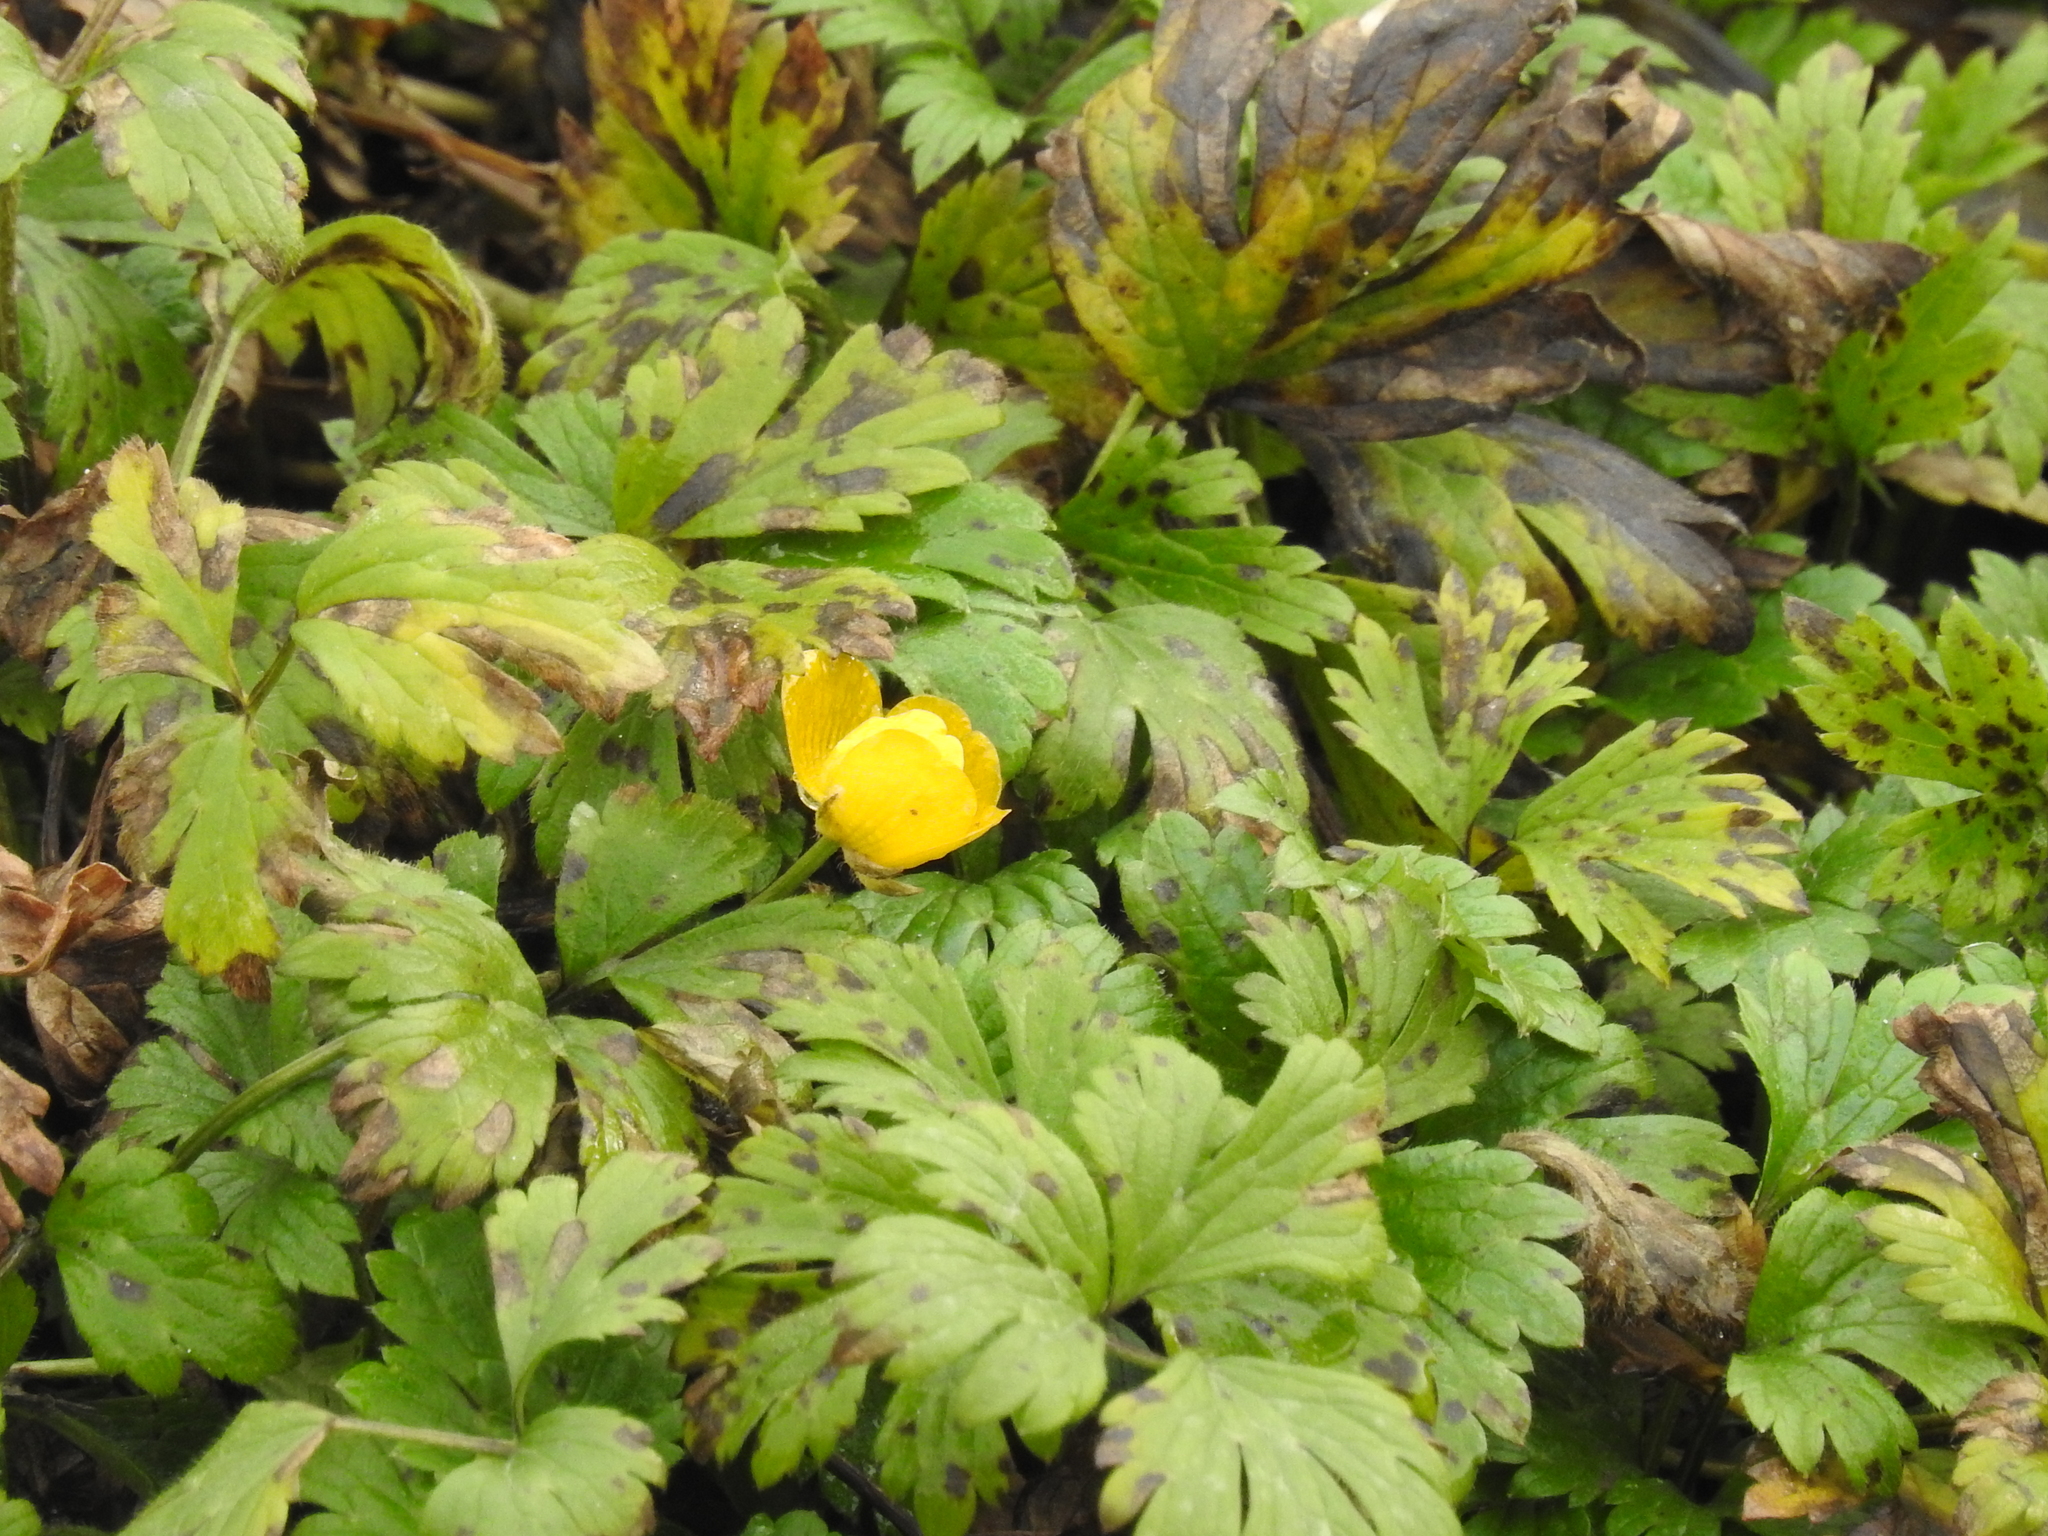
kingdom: Plantae
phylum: Tracheophyta
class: Magnoliopsida
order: Ranunculales
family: Ranunculaceae
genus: Ranunculus
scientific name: Ranunculus repens
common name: Creeping buttercup
